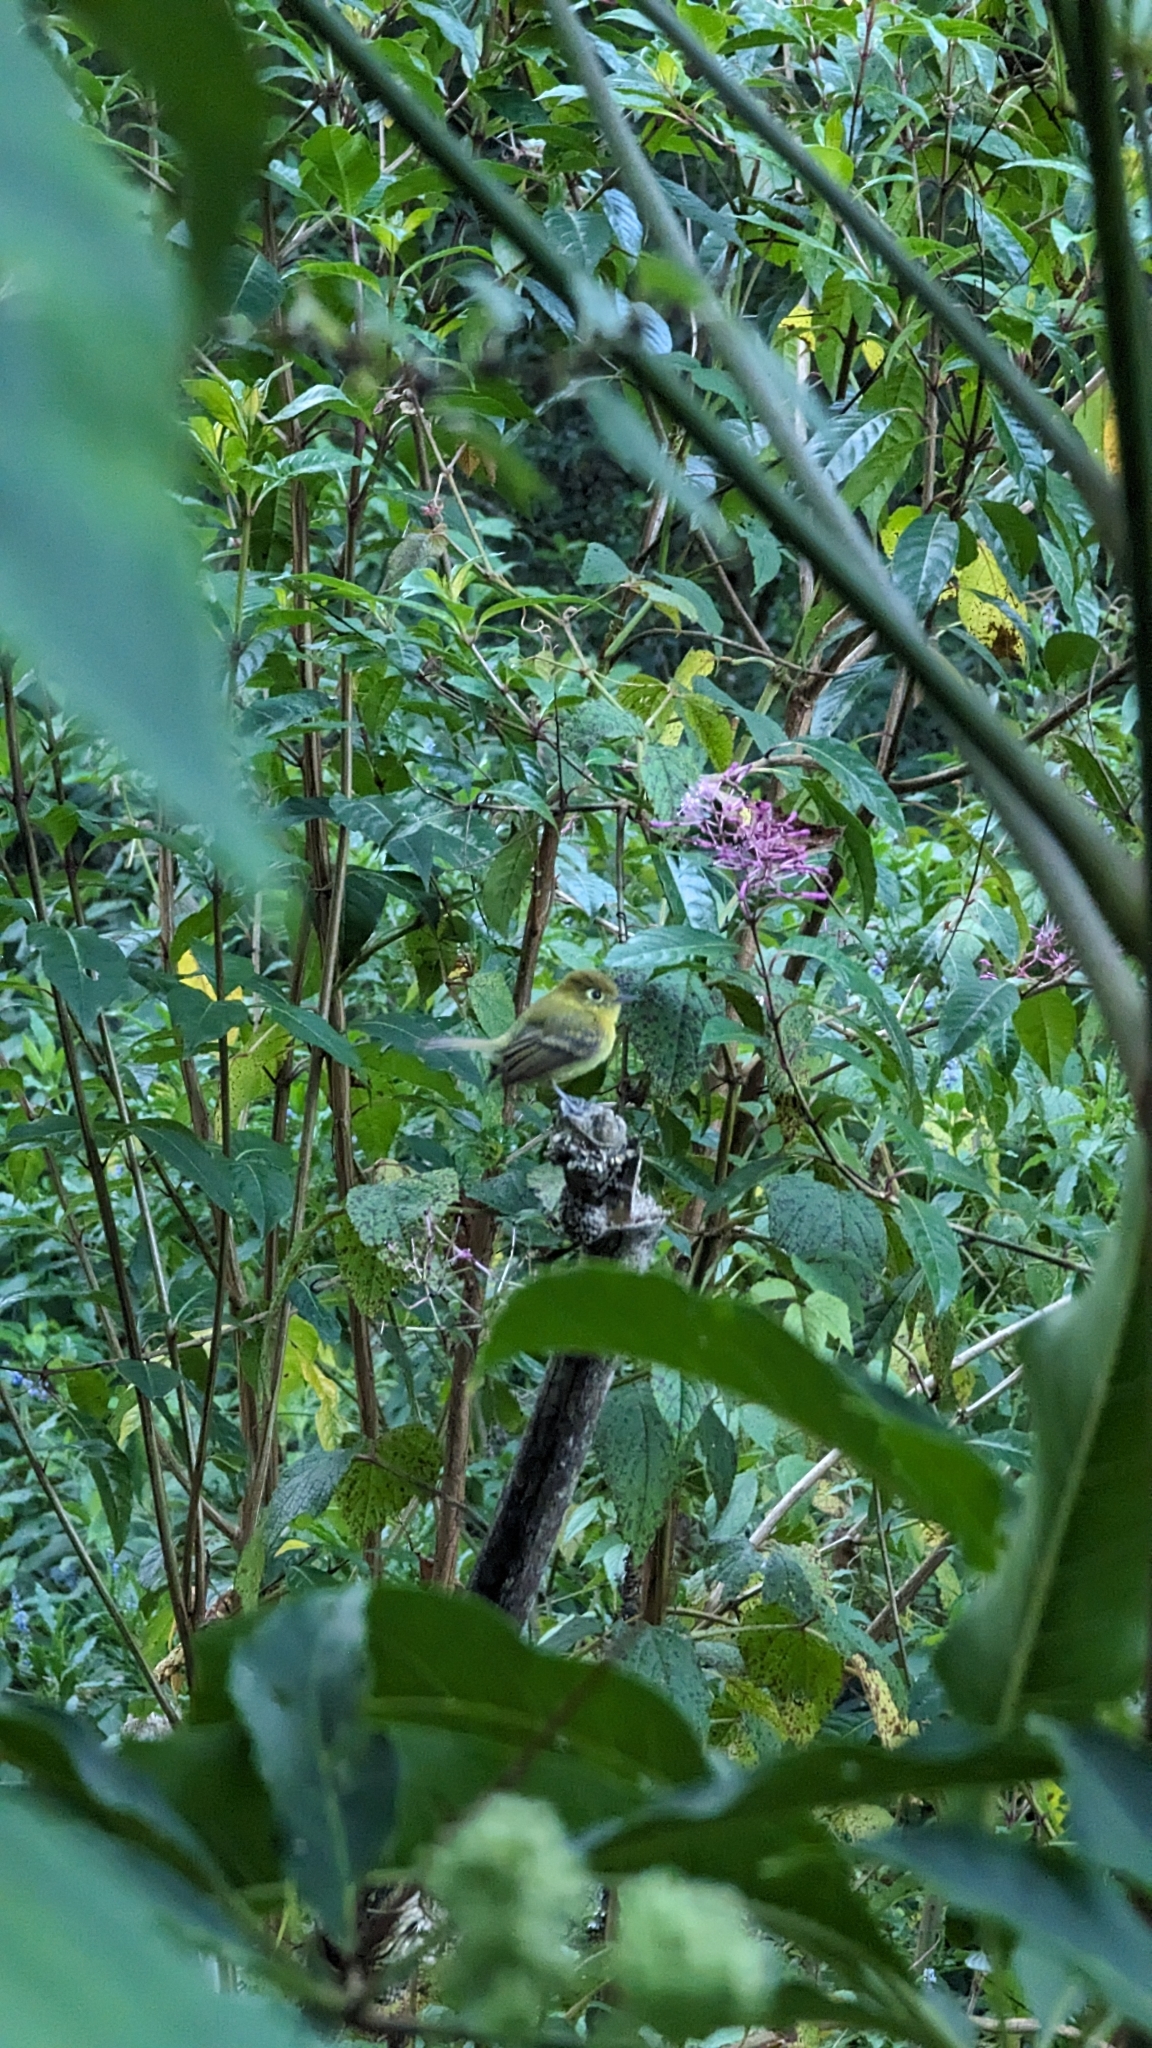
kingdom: Animalia
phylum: Chordata
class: Aves
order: Passeriformes
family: Tyrannidae
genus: Empidonax
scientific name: Empidonax flavescens
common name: Yellowish flycatcher
